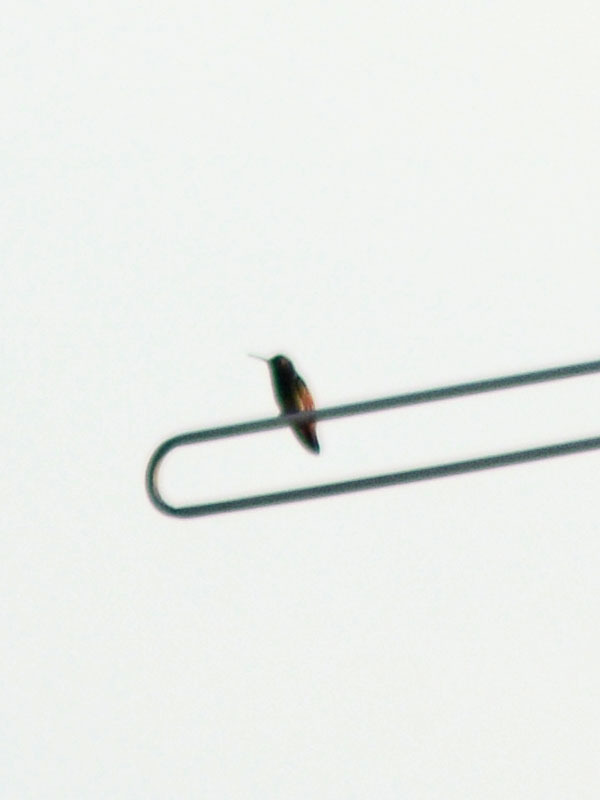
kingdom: Animalia
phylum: Chordata
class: Aves
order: Apodiformes
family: Trochilidae
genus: Saucerottia
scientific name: Saucerottia beryllina
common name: Berylline hummingbird
